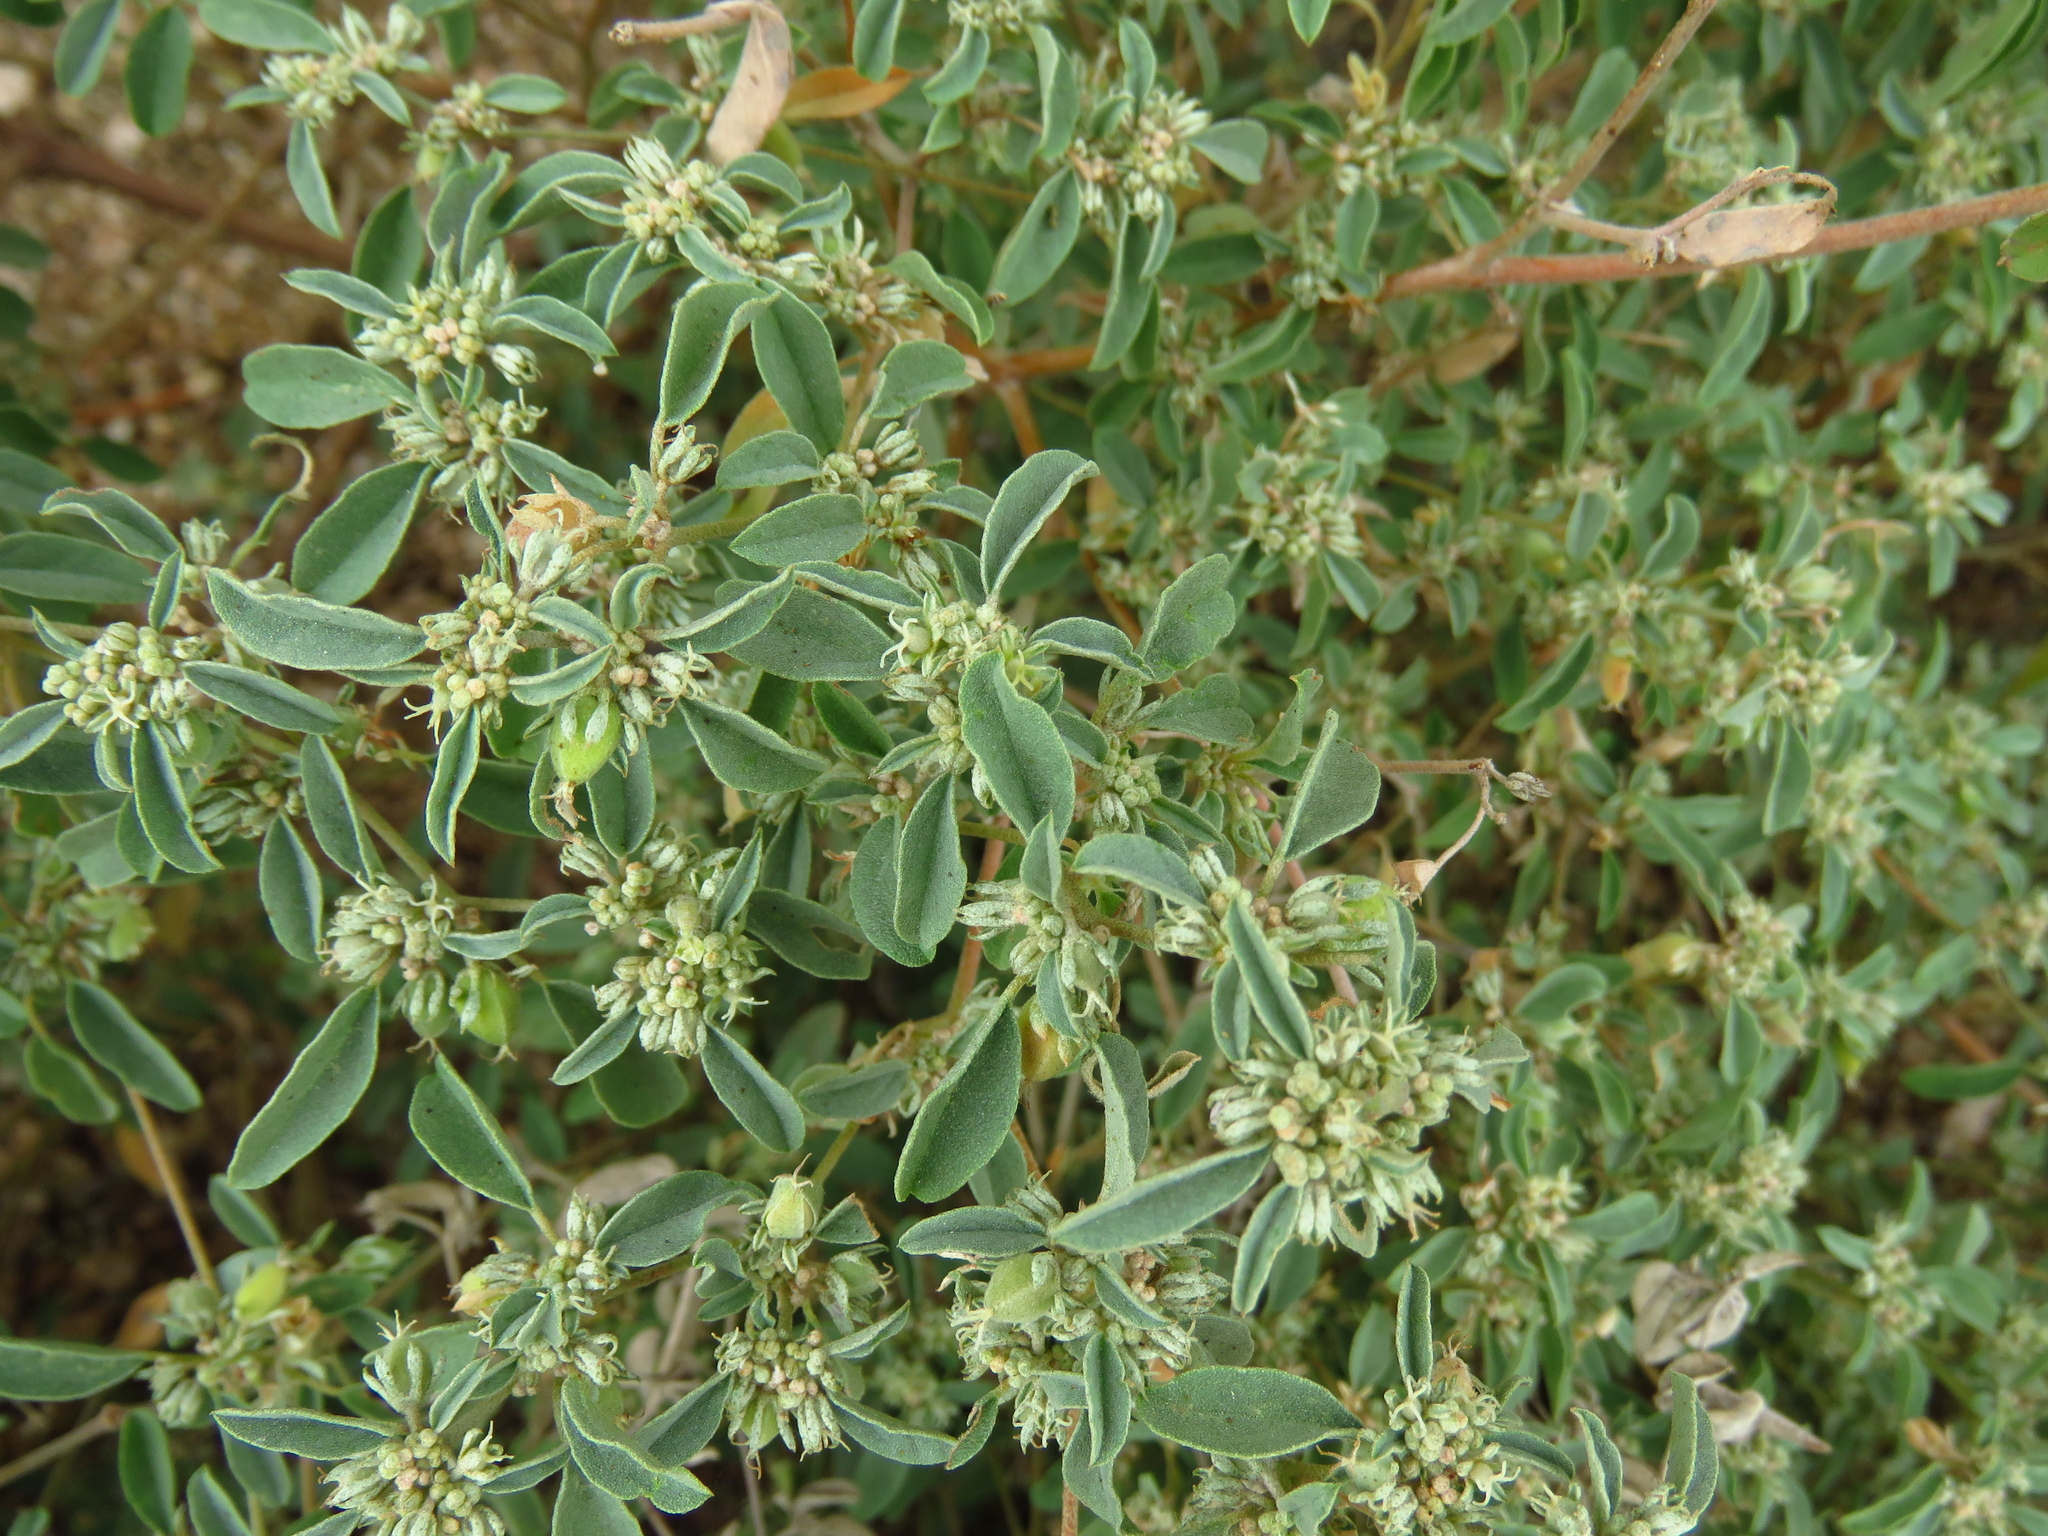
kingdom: Plantae
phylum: Tracheophyta
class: Magnoliopsida
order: Malpighiales
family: Euphorbiaceae
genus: Croton
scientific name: Croton monanthogynus
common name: One-seed croton
